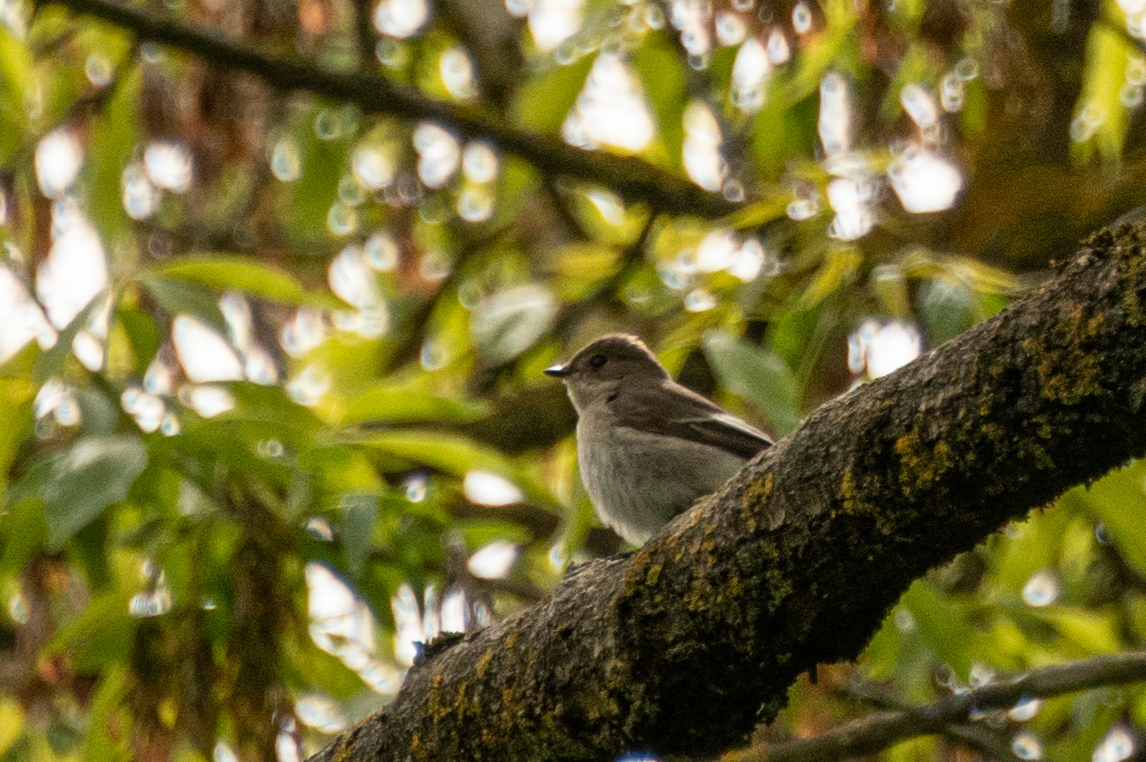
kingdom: Animalia
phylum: Chordata
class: Aves
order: Passeriformes
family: Muscicapidae
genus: Ficedula
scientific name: Ficedula hypoleuca
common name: European pied flycatcher
